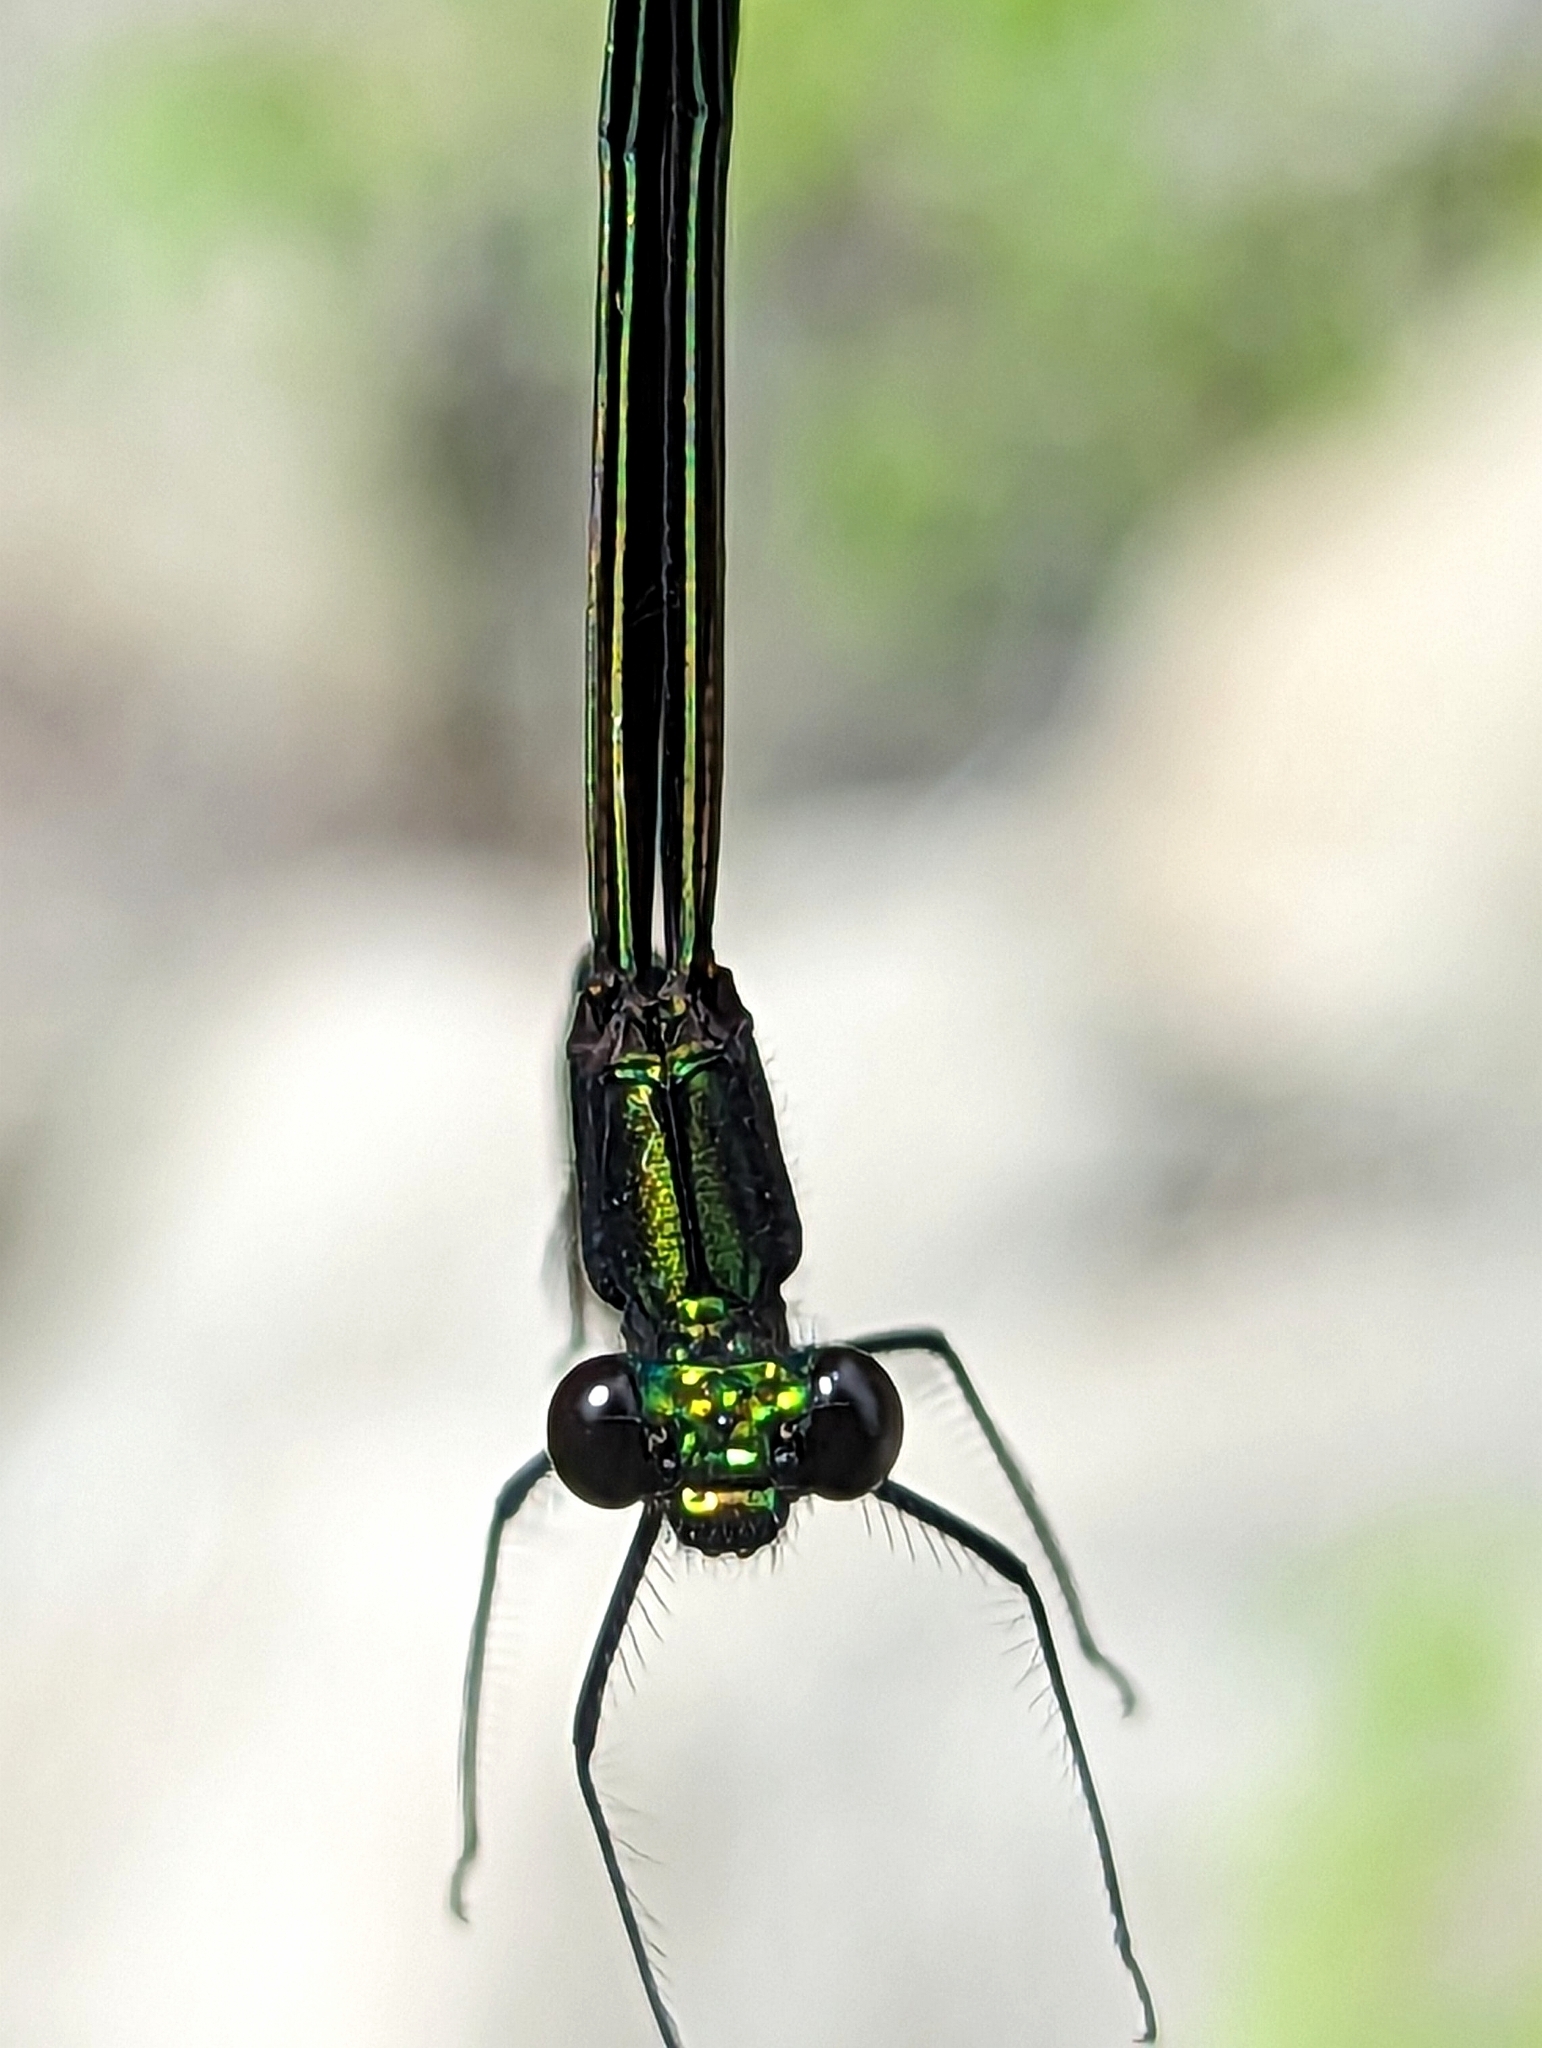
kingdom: Animalia
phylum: Arthropoda
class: Insecta
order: Odonata
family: Calopterygidae
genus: Calopteryx
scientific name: Calopteryx maculata
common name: Ebony jewelwing
